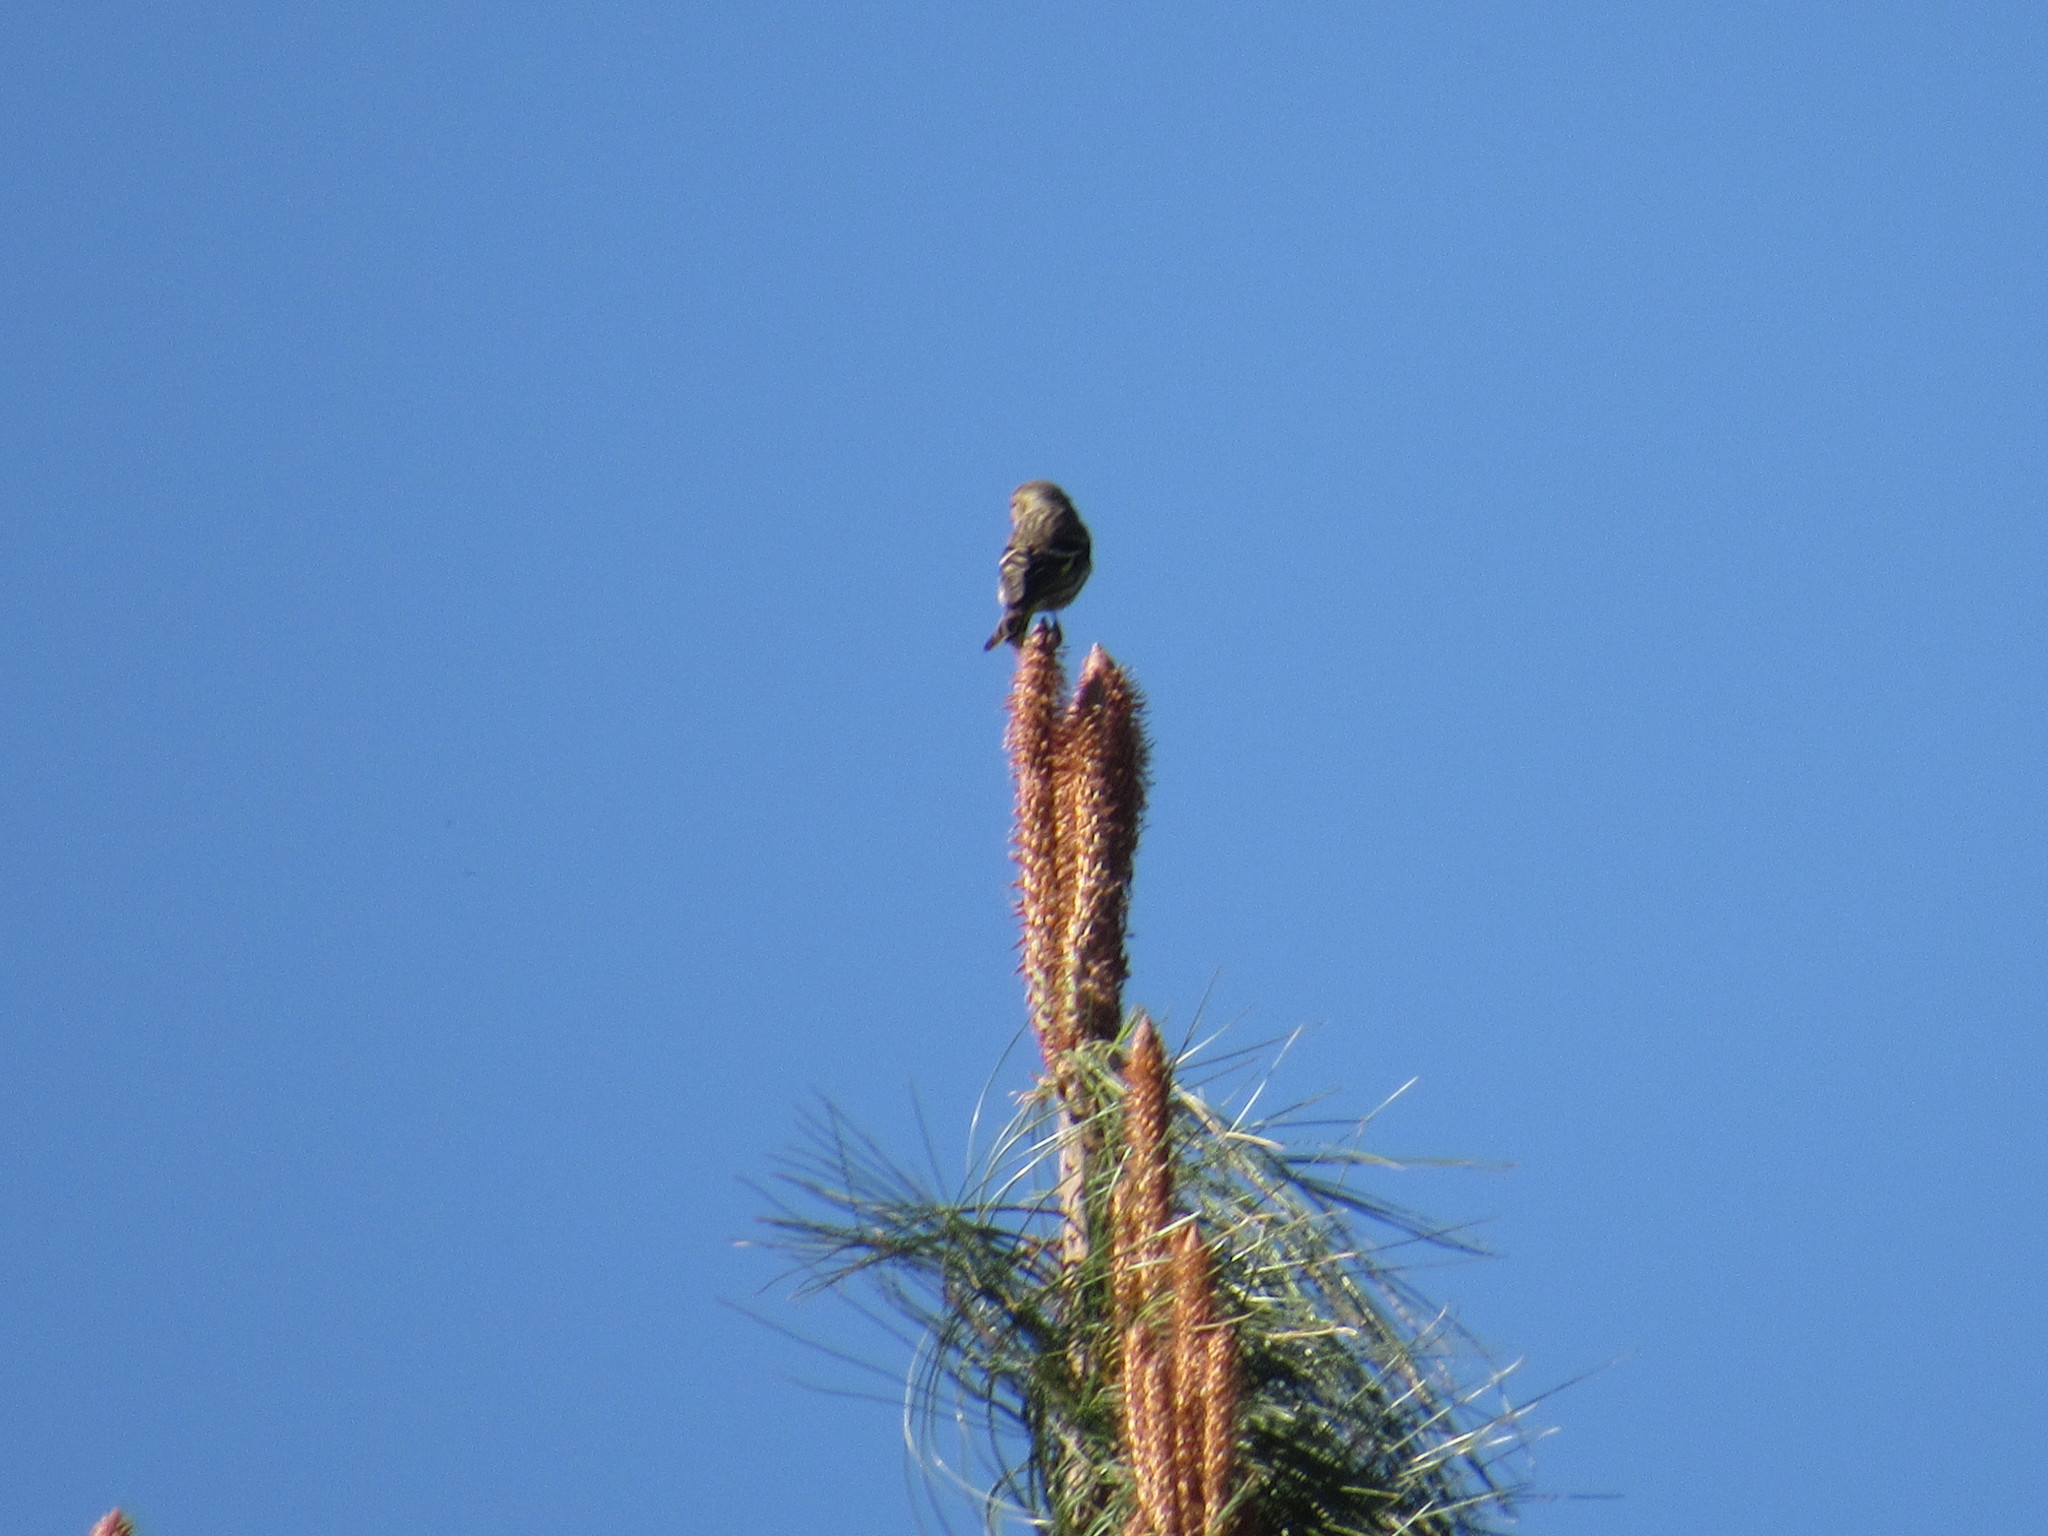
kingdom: Animalia
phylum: Chordata
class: Aves
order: Passeriformes
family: Fringillidae
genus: Spinus
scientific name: Spinus pinus
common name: Pine siskin
